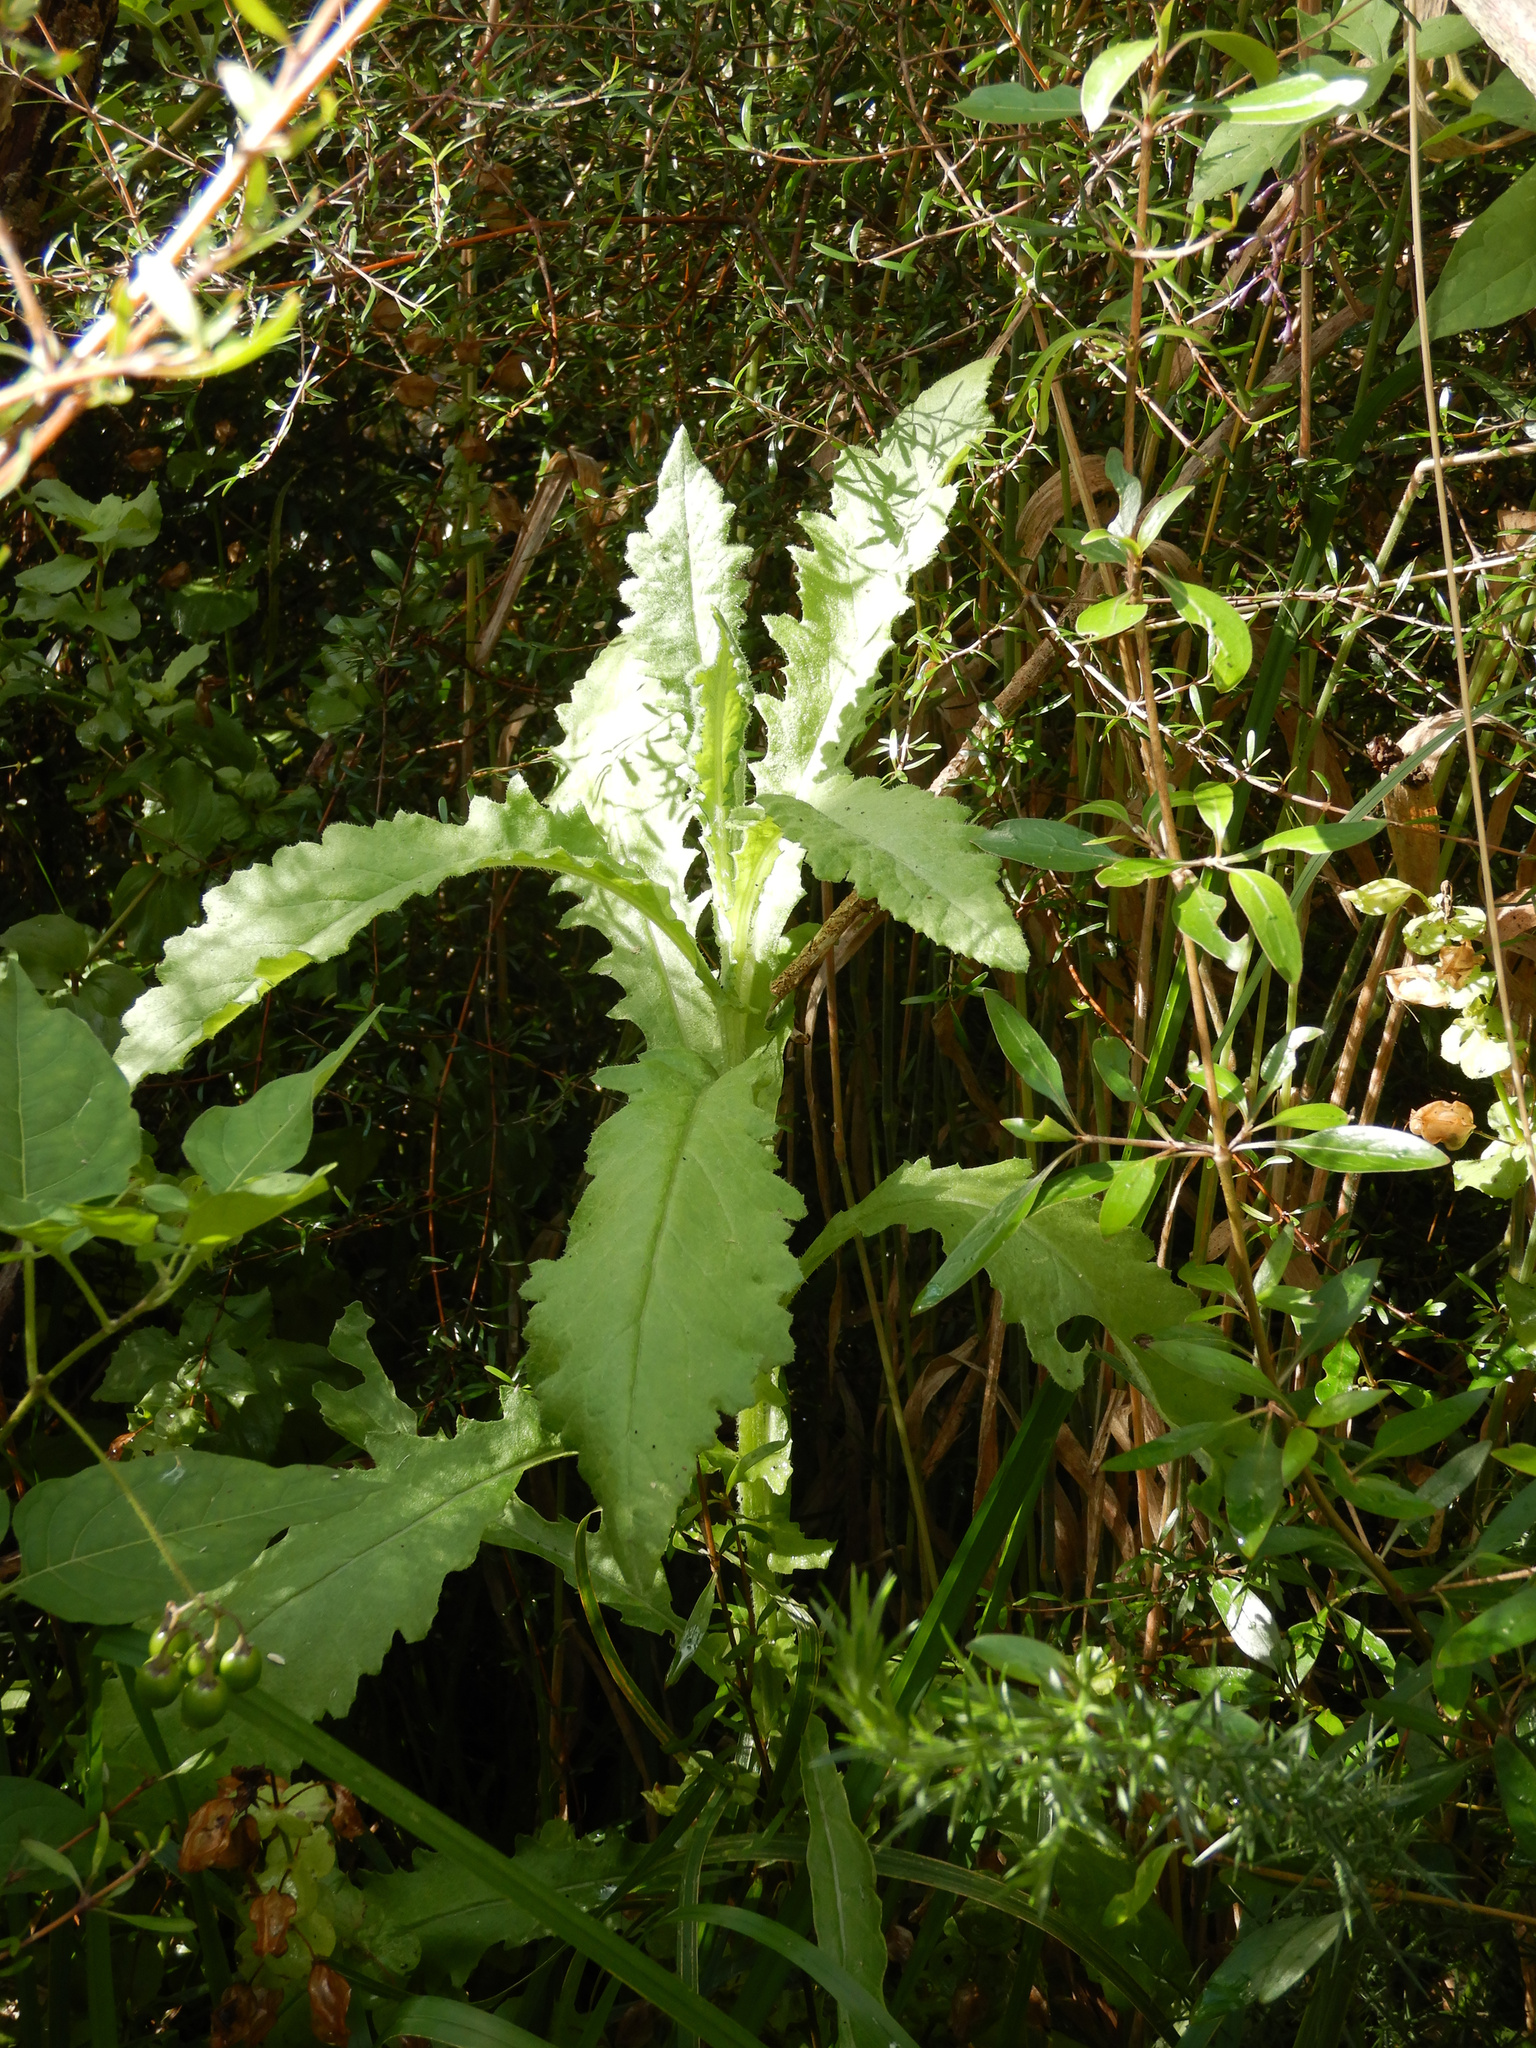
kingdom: Plantae
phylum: Tracheophyta
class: Magnoliopsida
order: Asterales
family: Asteraceae
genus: Senecio
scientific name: Senecio glomeratus
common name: Cutleaf burnweed
